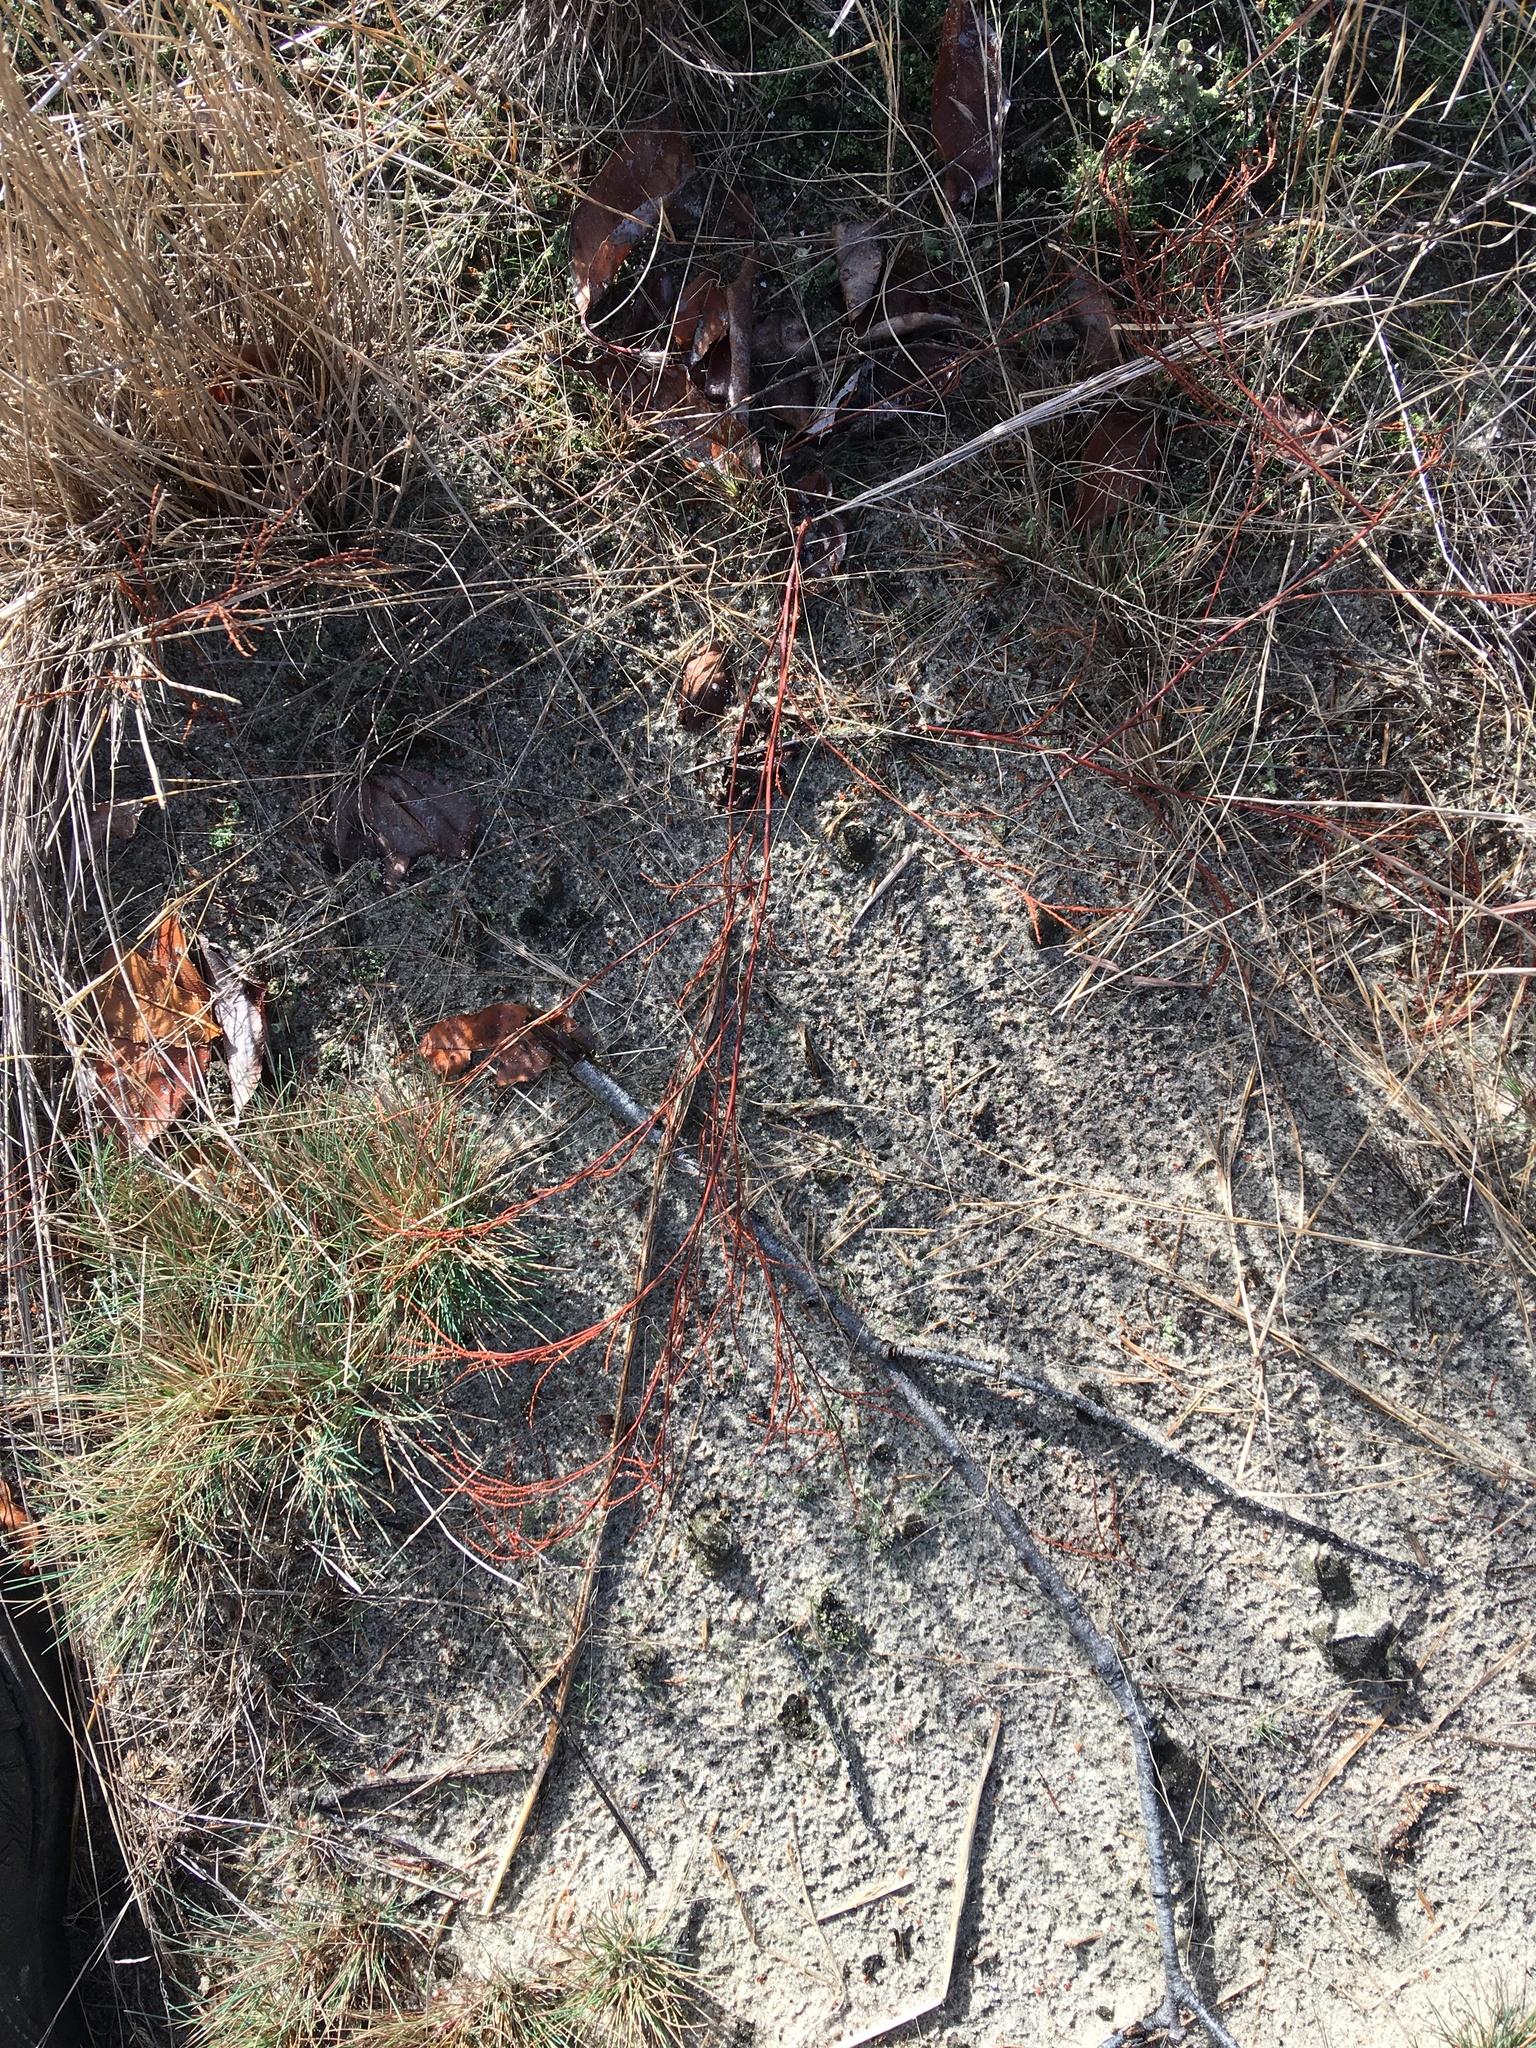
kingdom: Plantae
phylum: Tracheophyta
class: Magnoliopsida
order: Caryophyllales
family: Polygonaceae
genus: Polygonella
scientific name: Polygonella articulata
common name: Coastal jointweed
